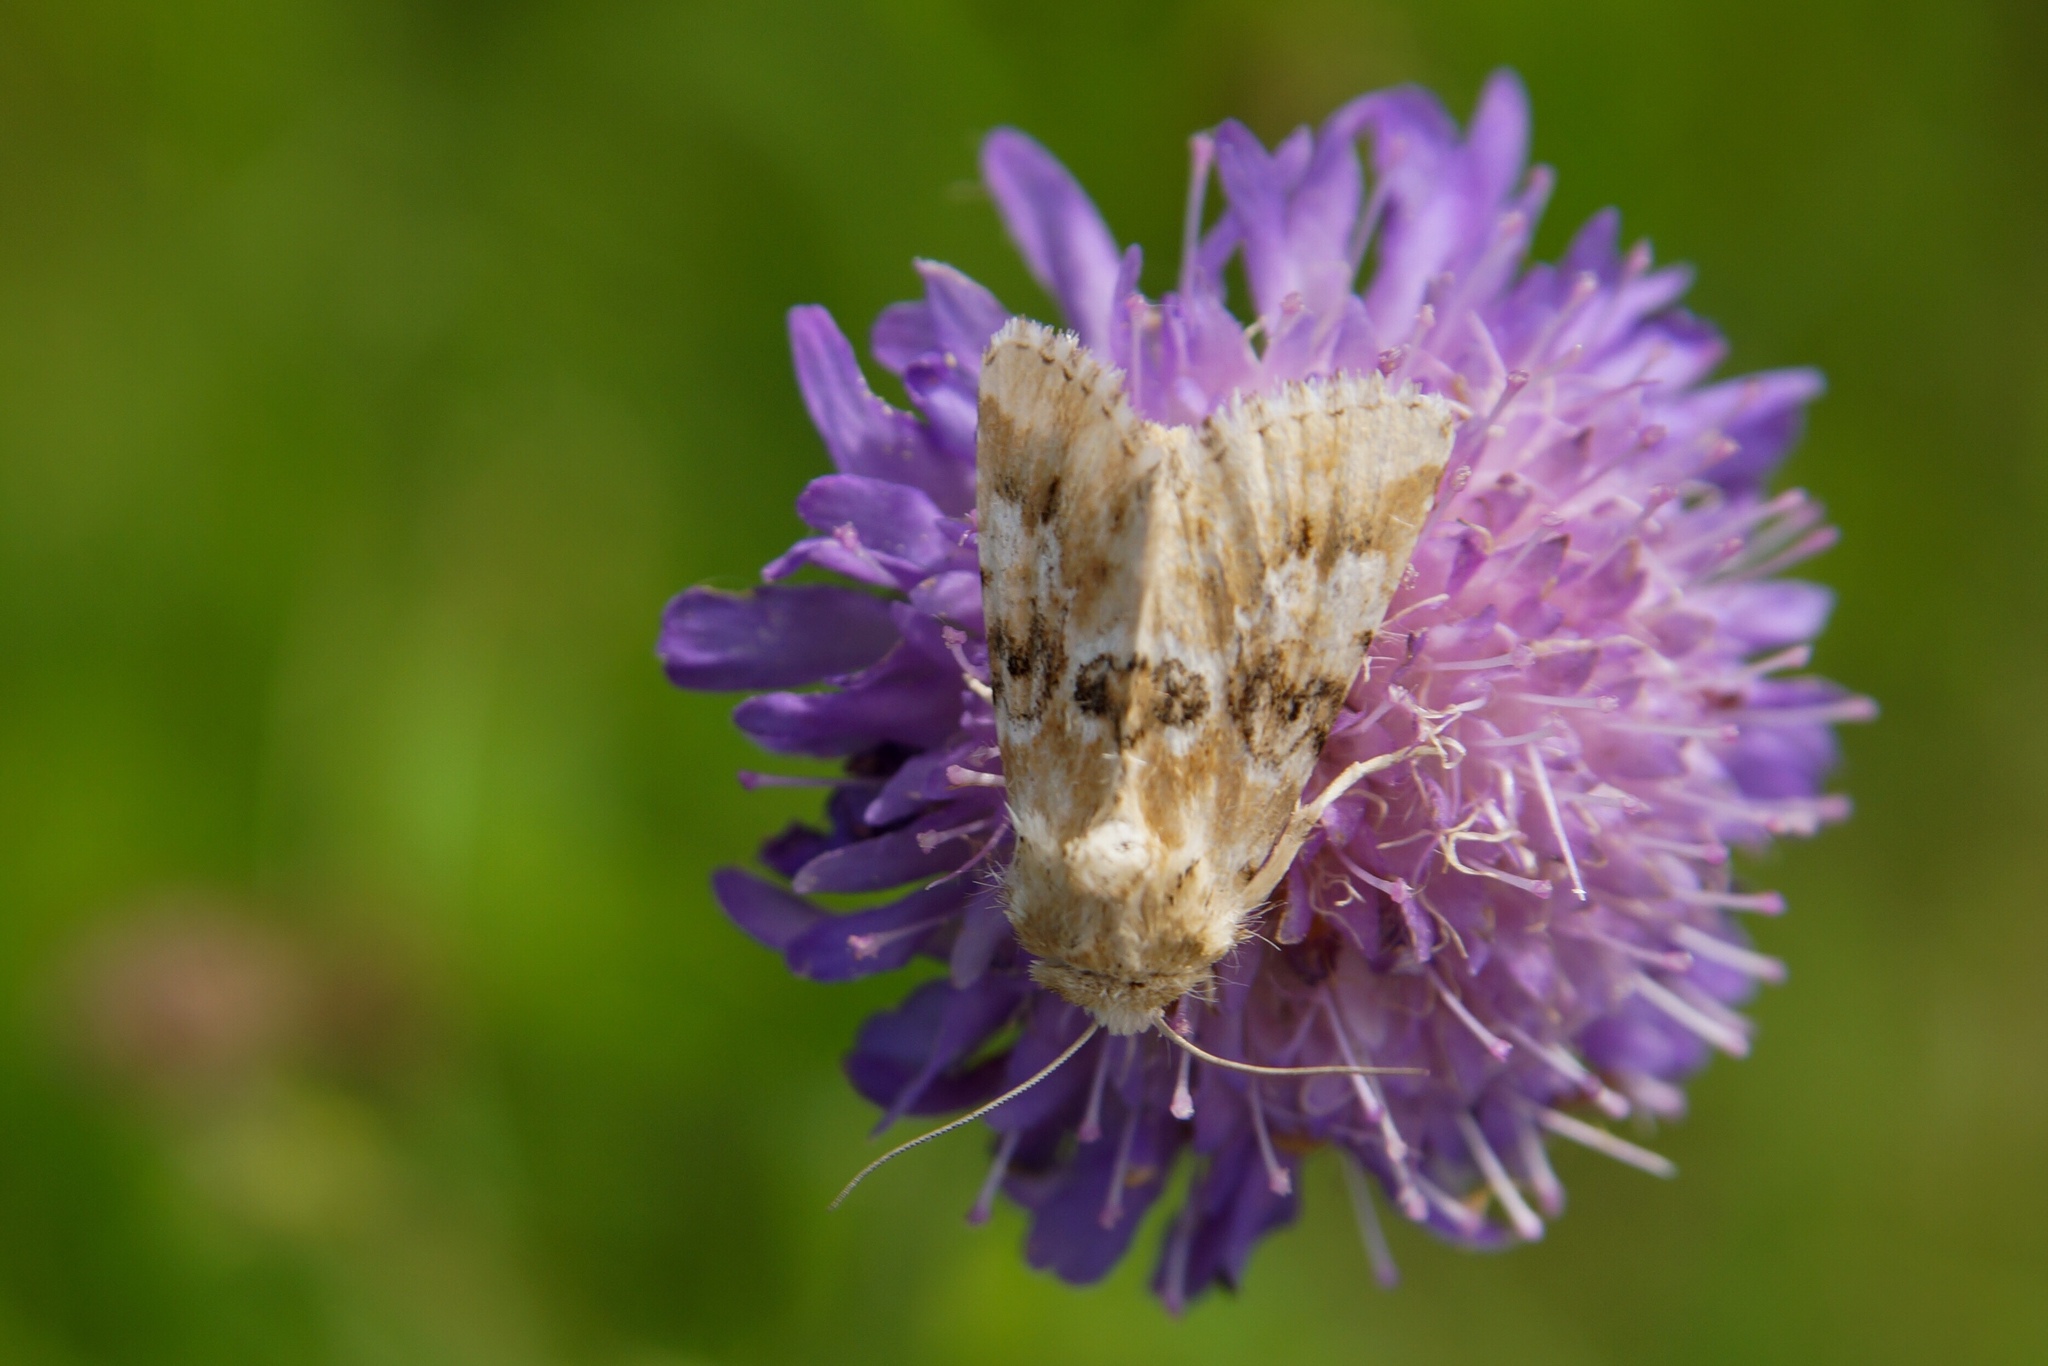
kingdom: Animalia
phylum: Arthropoda
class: Insecta
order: Lepidoptera
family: Noctuidae
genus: Eremobia
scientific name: Eremobia ochroleuca
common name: Dusky sallow
